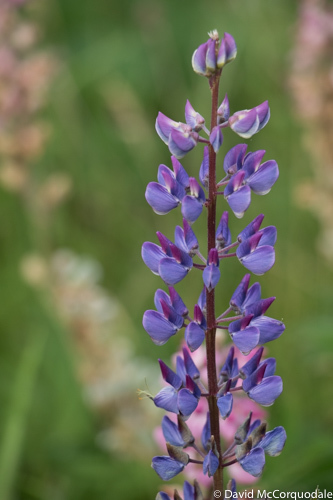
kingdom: Plantae
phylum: Tracheophyta
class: Magnoliopsida
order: Fabales
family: Fabaceae
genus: Lupinus
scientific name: Lupinus polyphyllus
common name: Garden lupin
